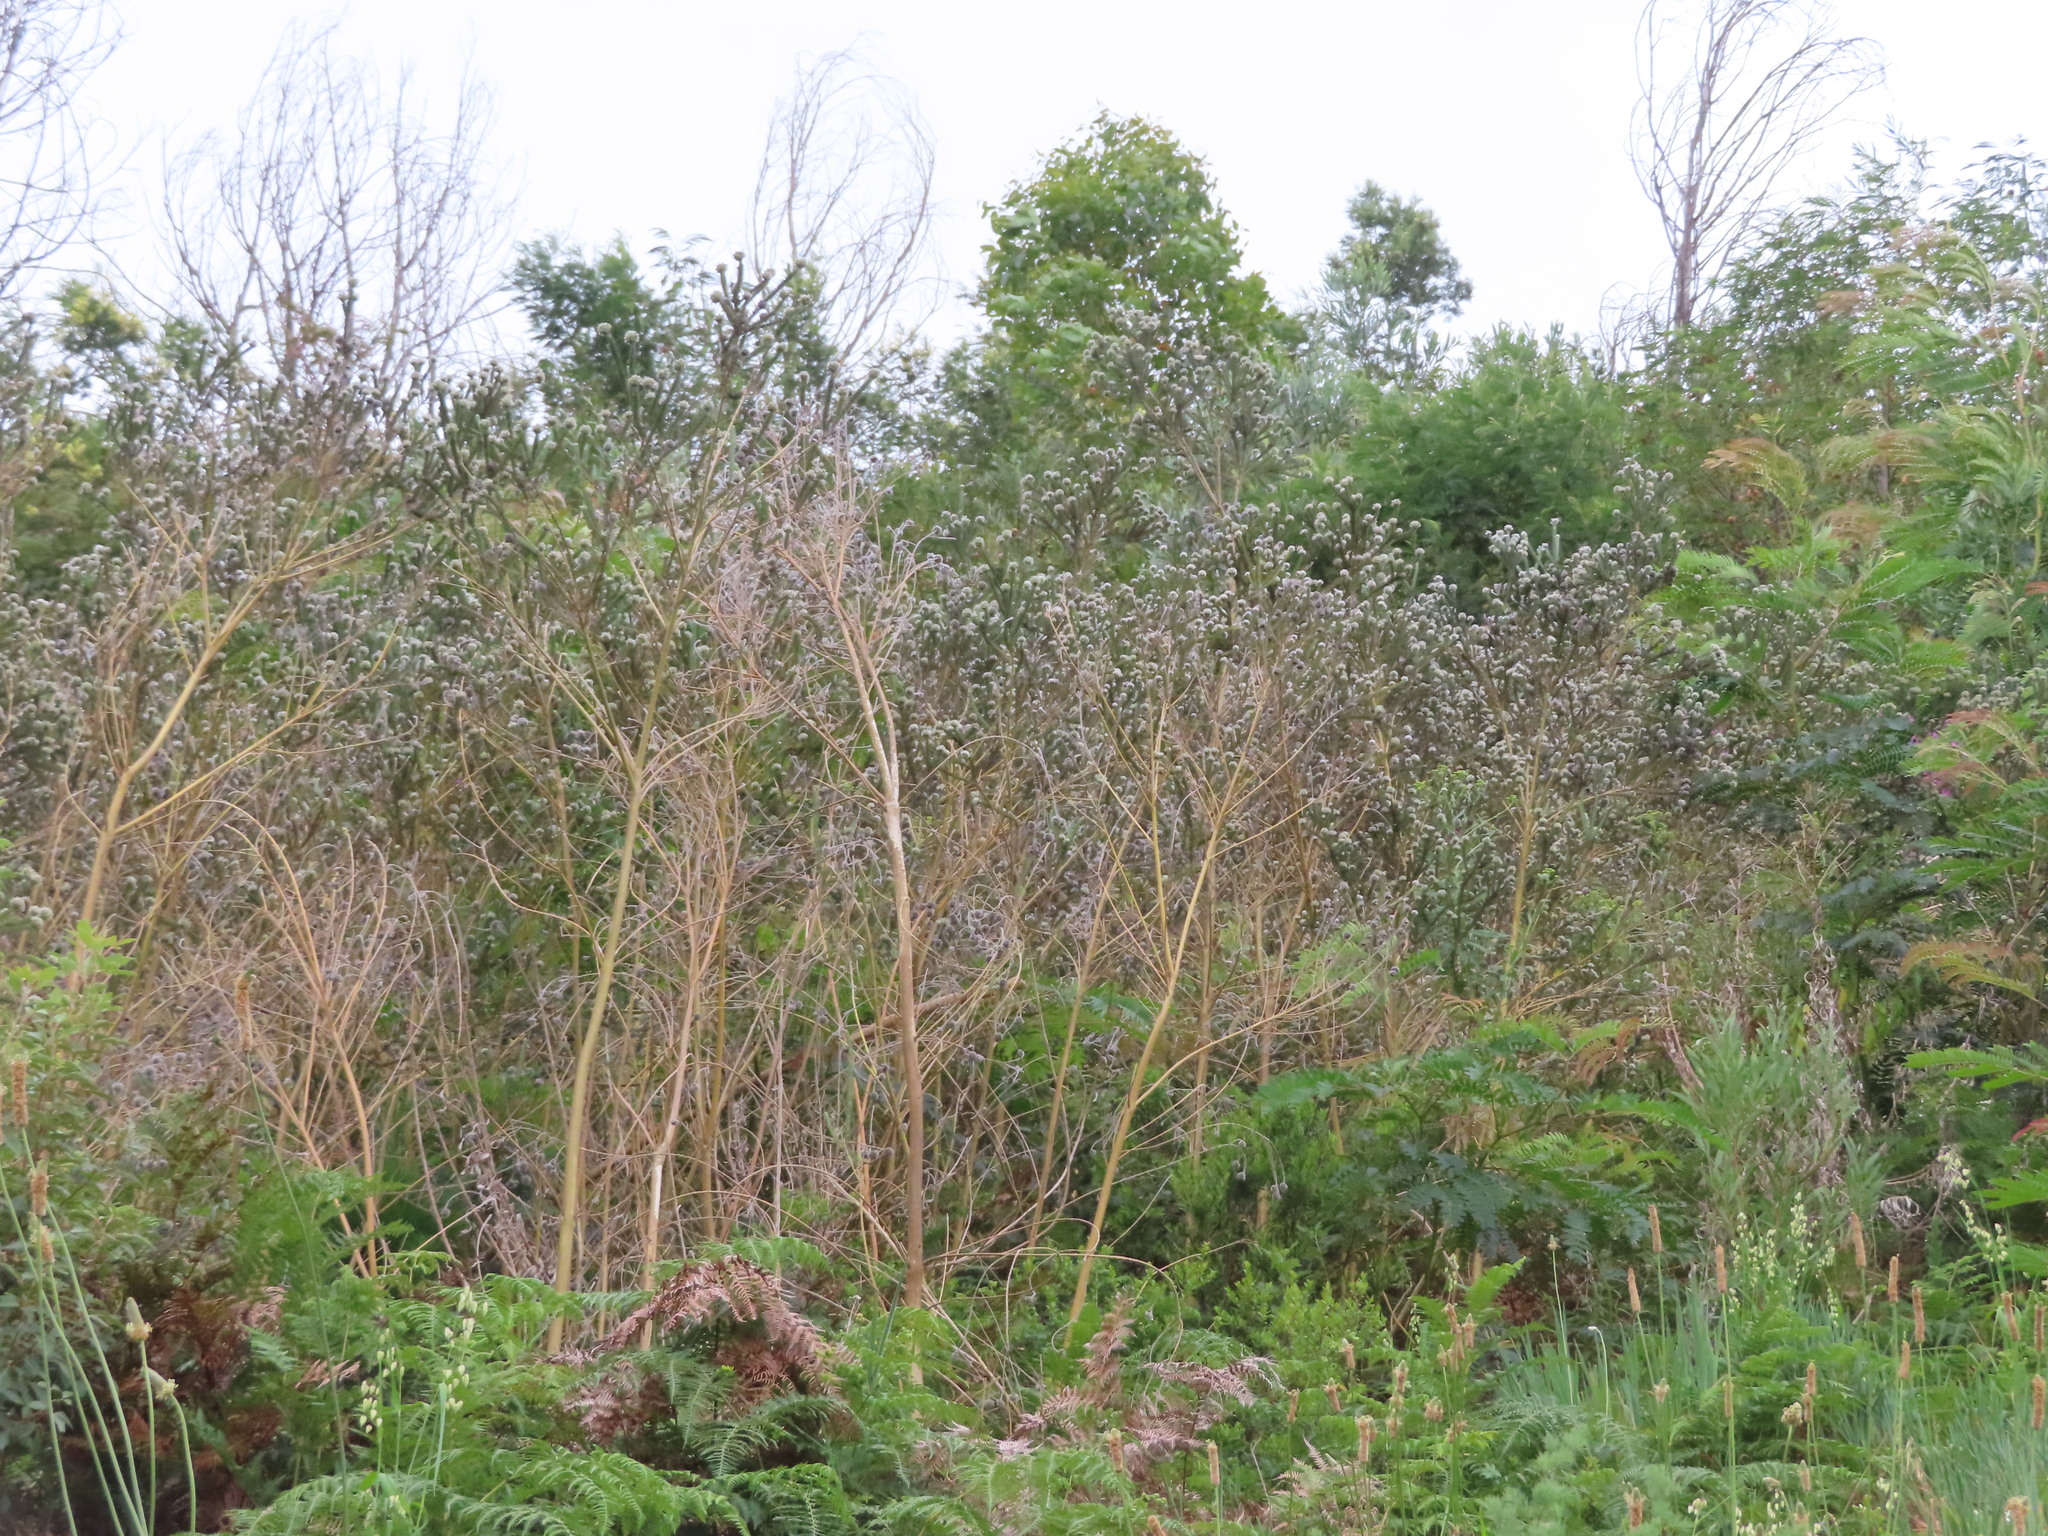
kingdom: Plantae
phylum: Tracheophyta
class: Magnoliopsida
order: Fabales
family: Fabaceae
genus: Aspalathus
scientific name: Aspalathus globosa
